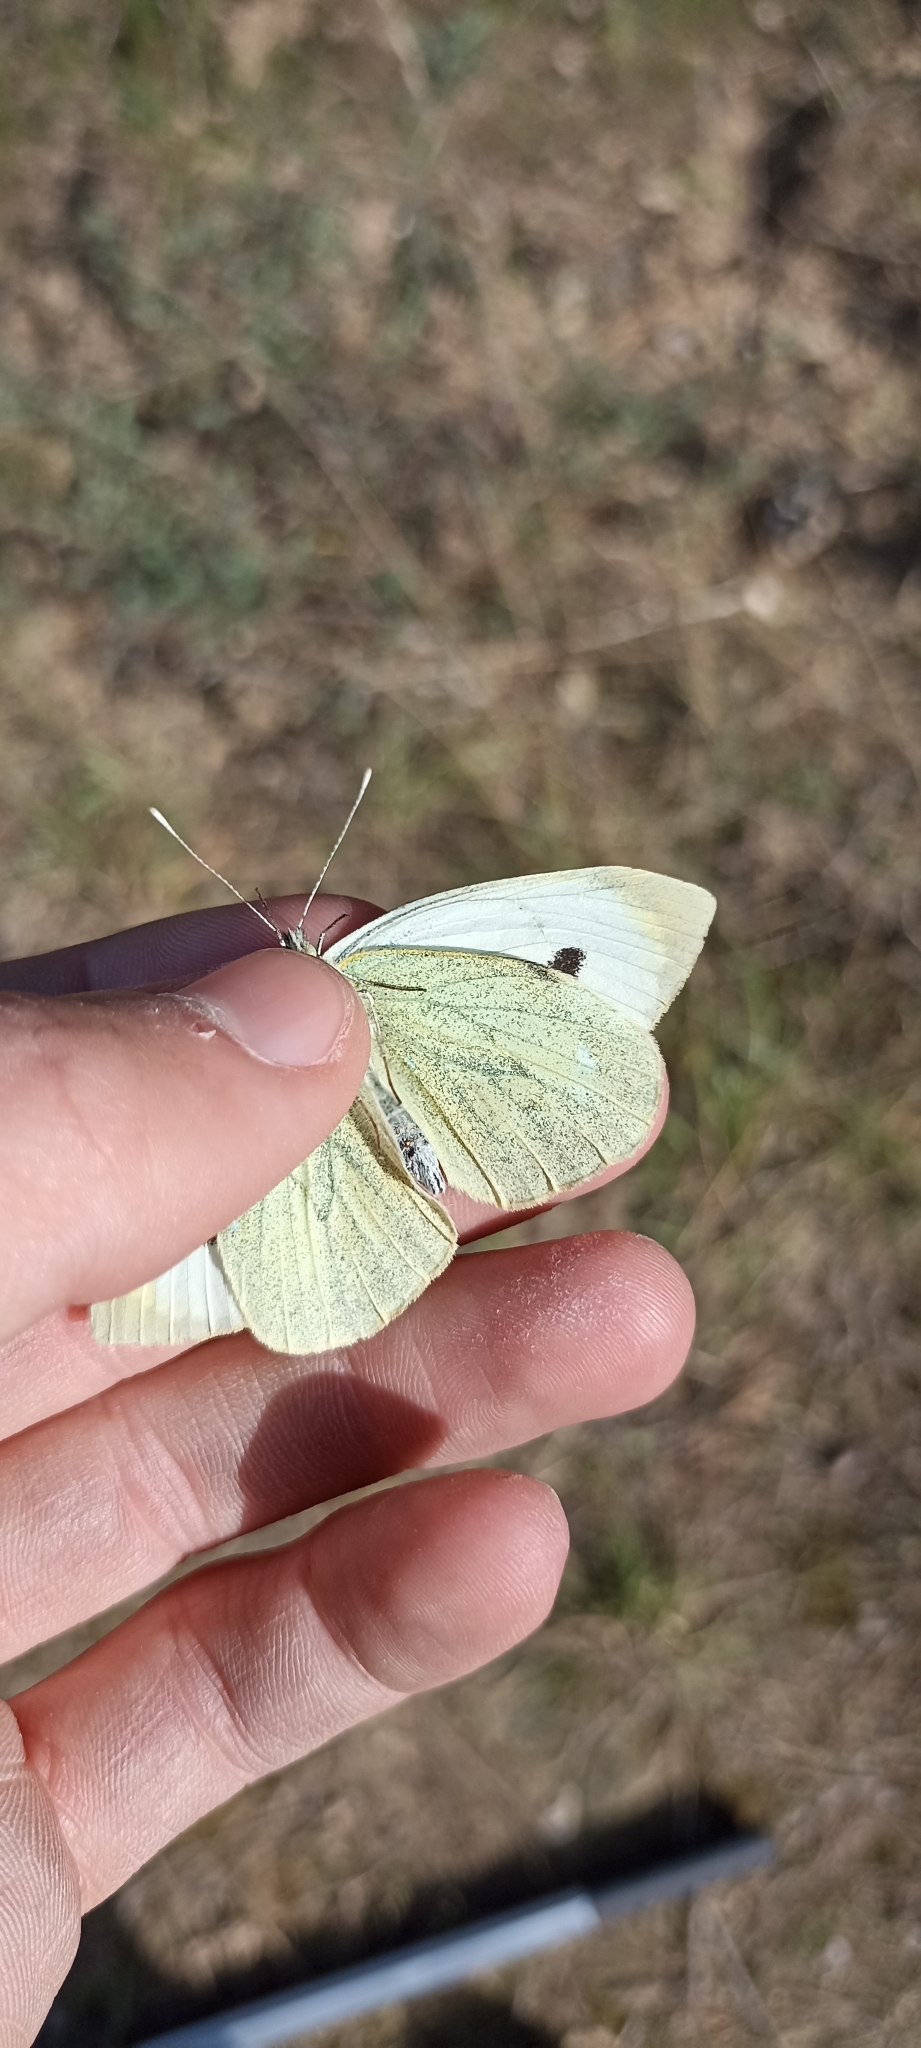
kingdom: Animalia
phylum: Arthropoda
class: Insecta
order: Lepidoptera
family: Pieridae
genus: Pieris
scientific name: Pieris brassicae
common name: Large white
